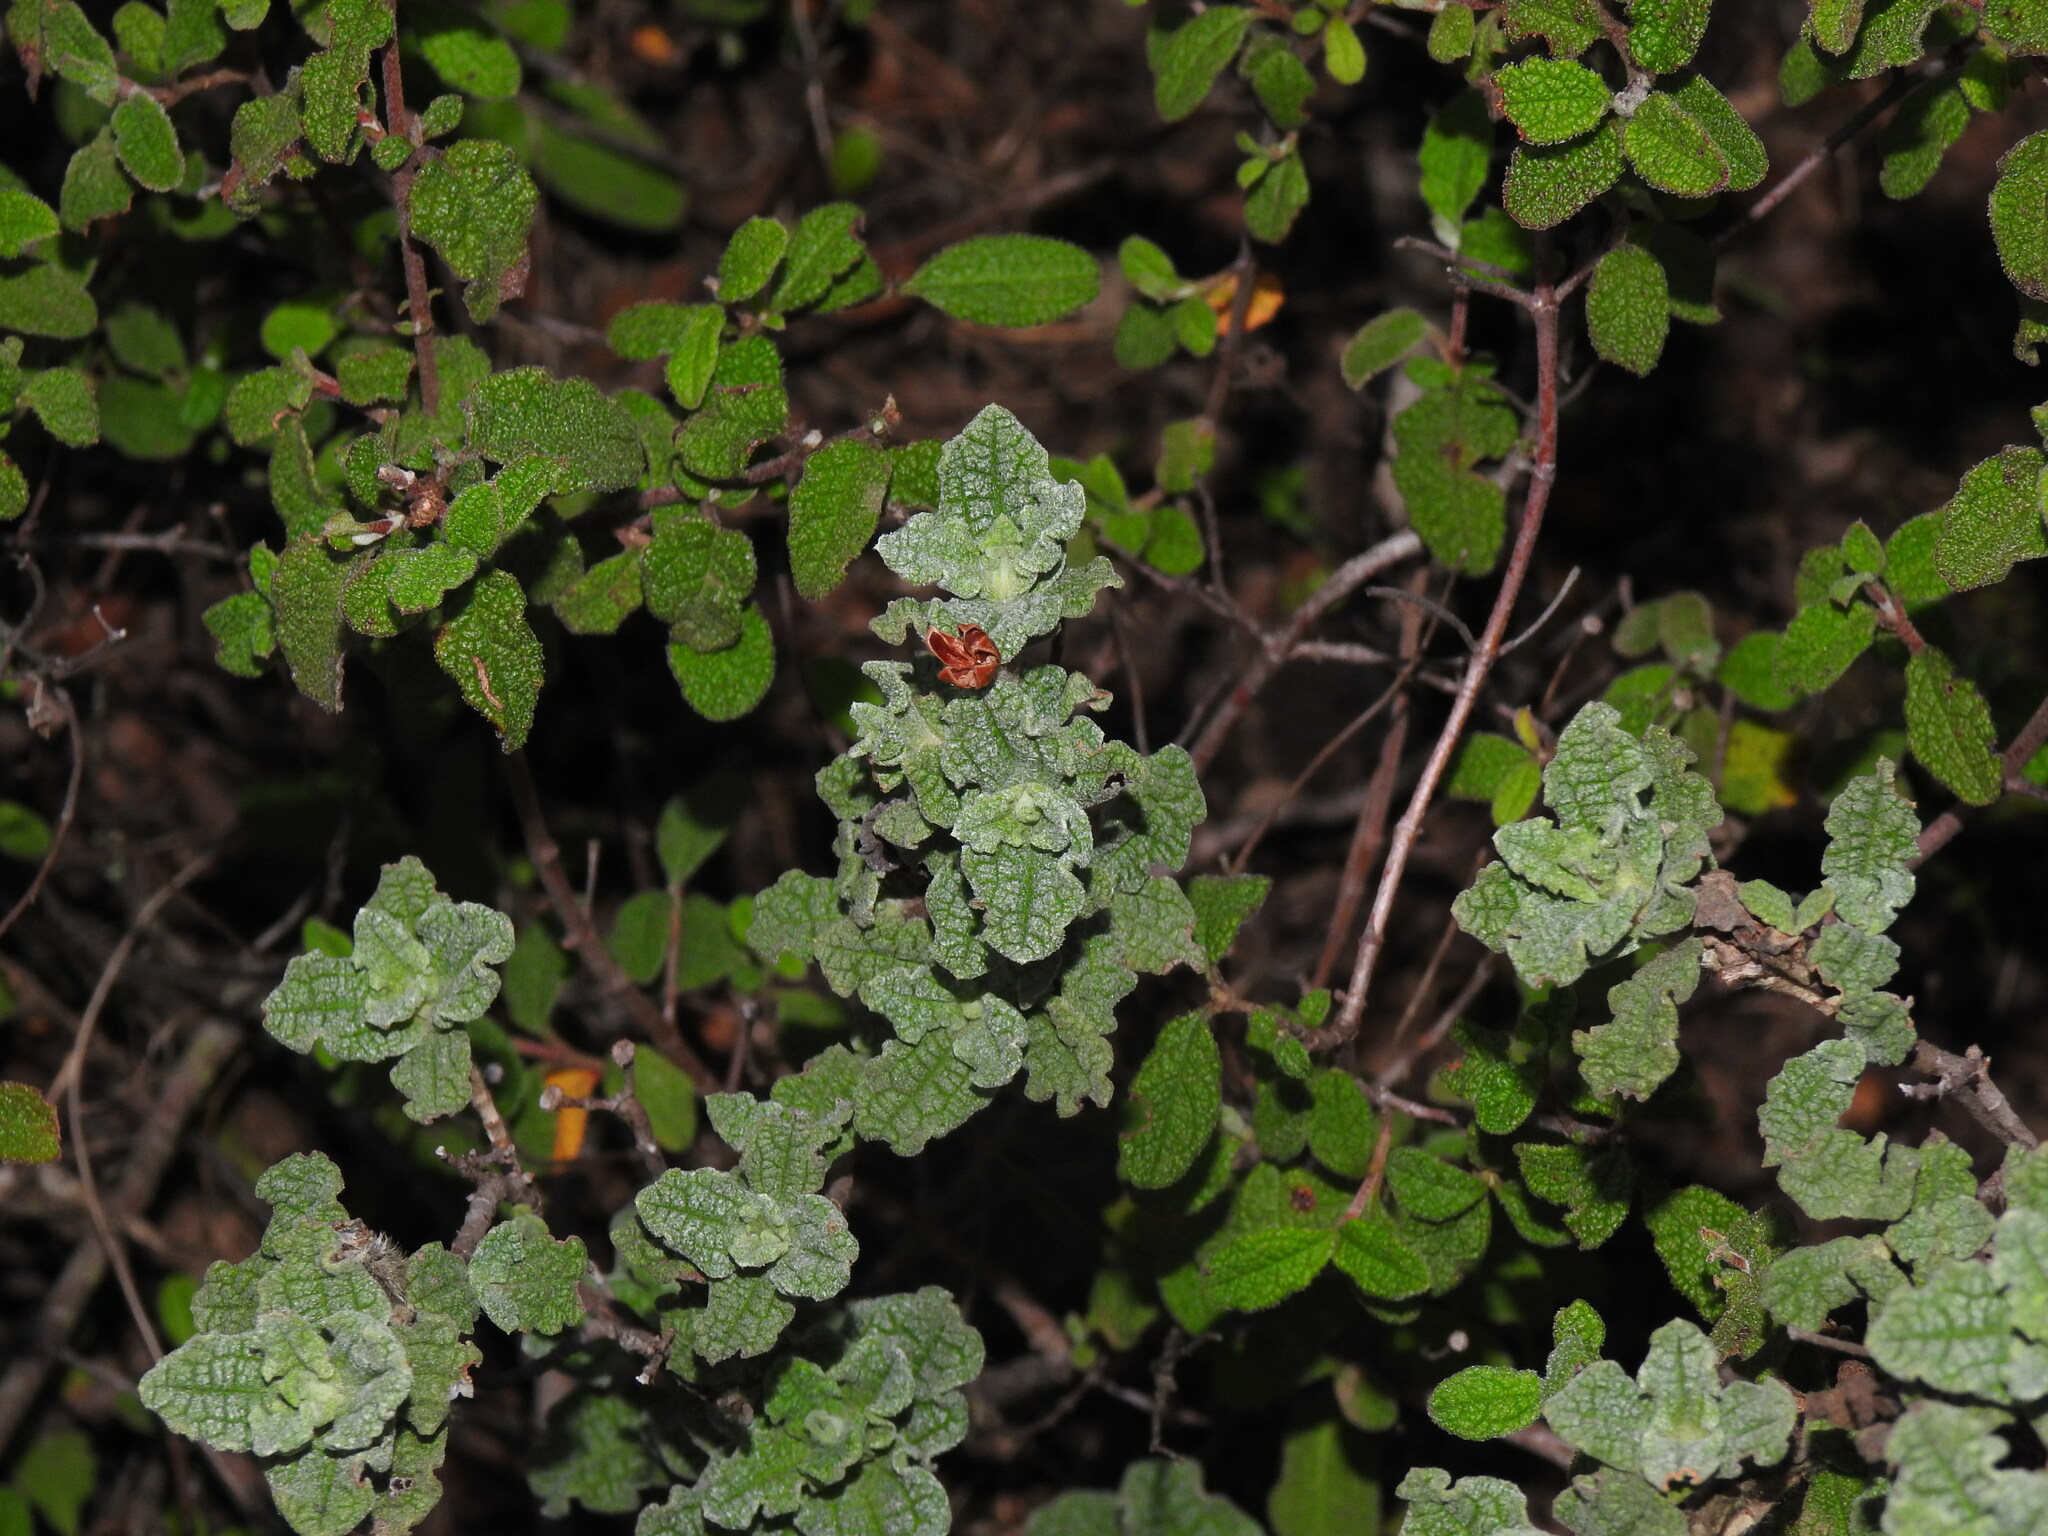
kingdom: Plantae
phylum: Tracheophyta
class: Magnoliopsida
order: Malvales
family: Cistaceae
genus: Cistus
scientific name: Cistus crispus
